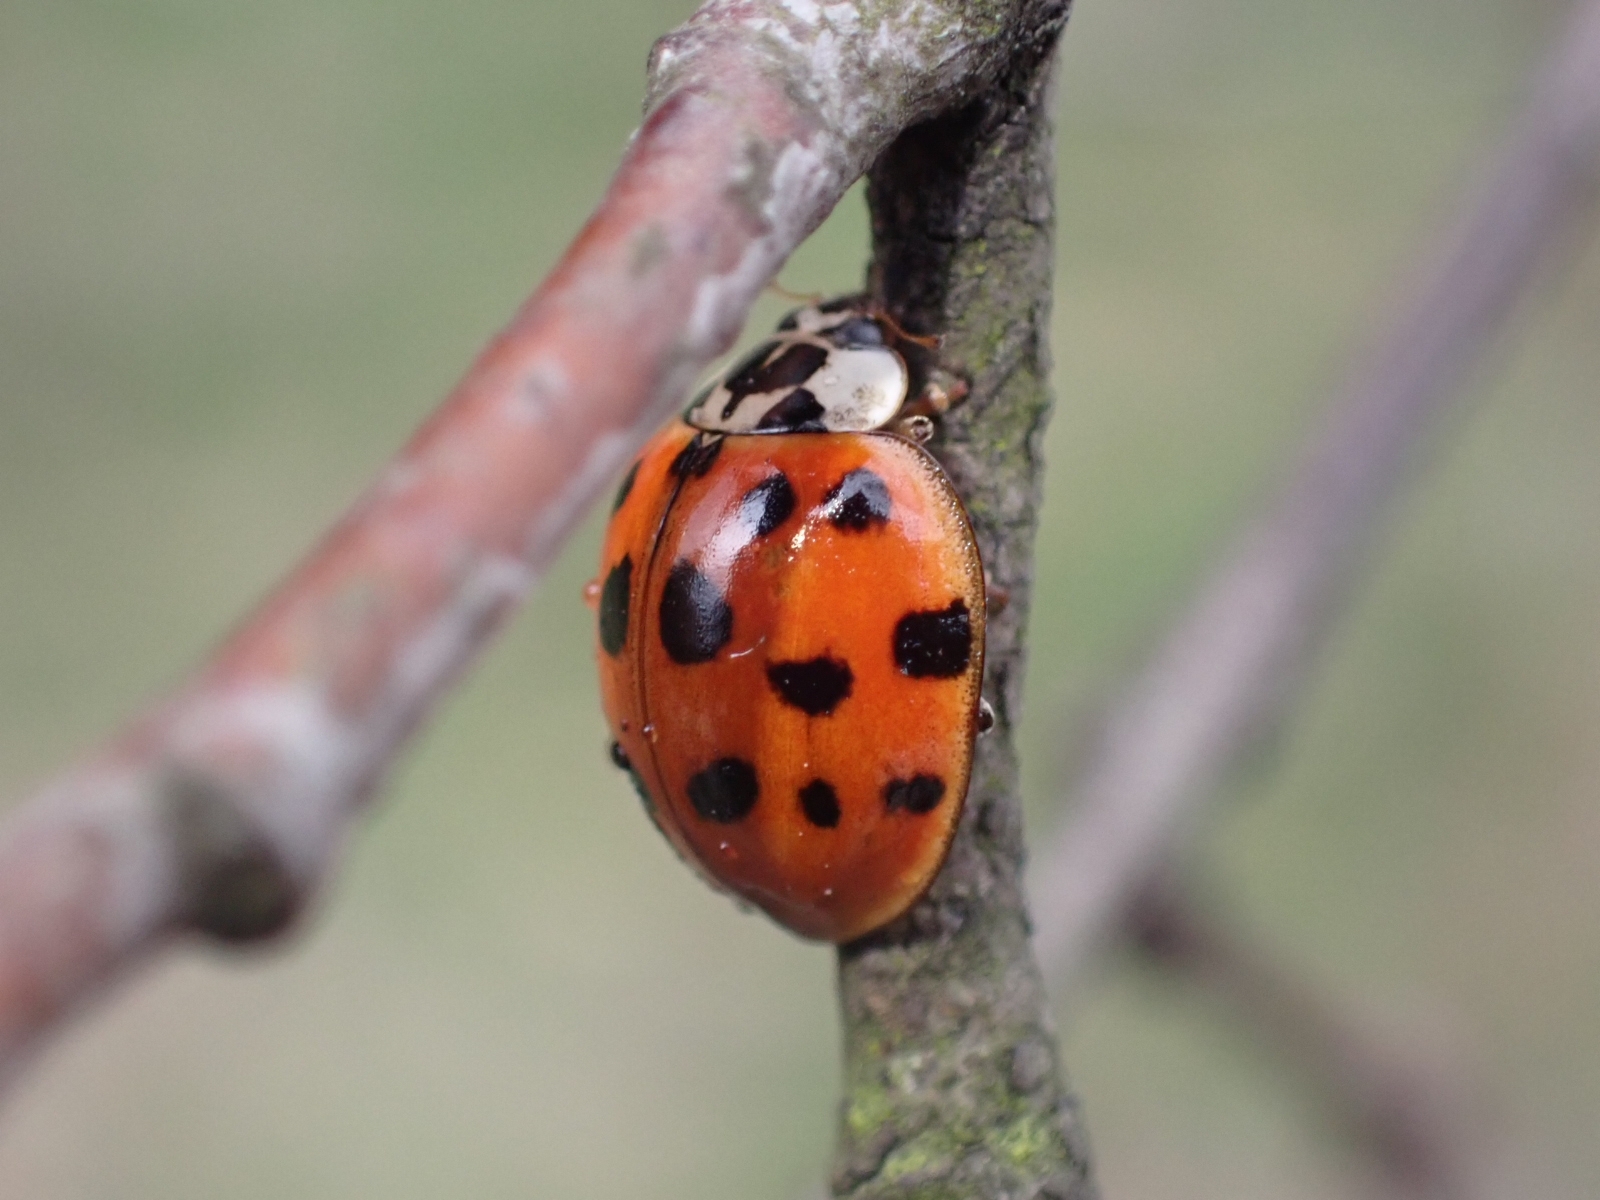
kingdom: Animalia
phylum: Arthropoda
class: Insecta
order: Coleoptera
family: Coccinellidae
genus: Harmonia
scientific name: Harmonia axyridis
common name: Harlequin ladybird
